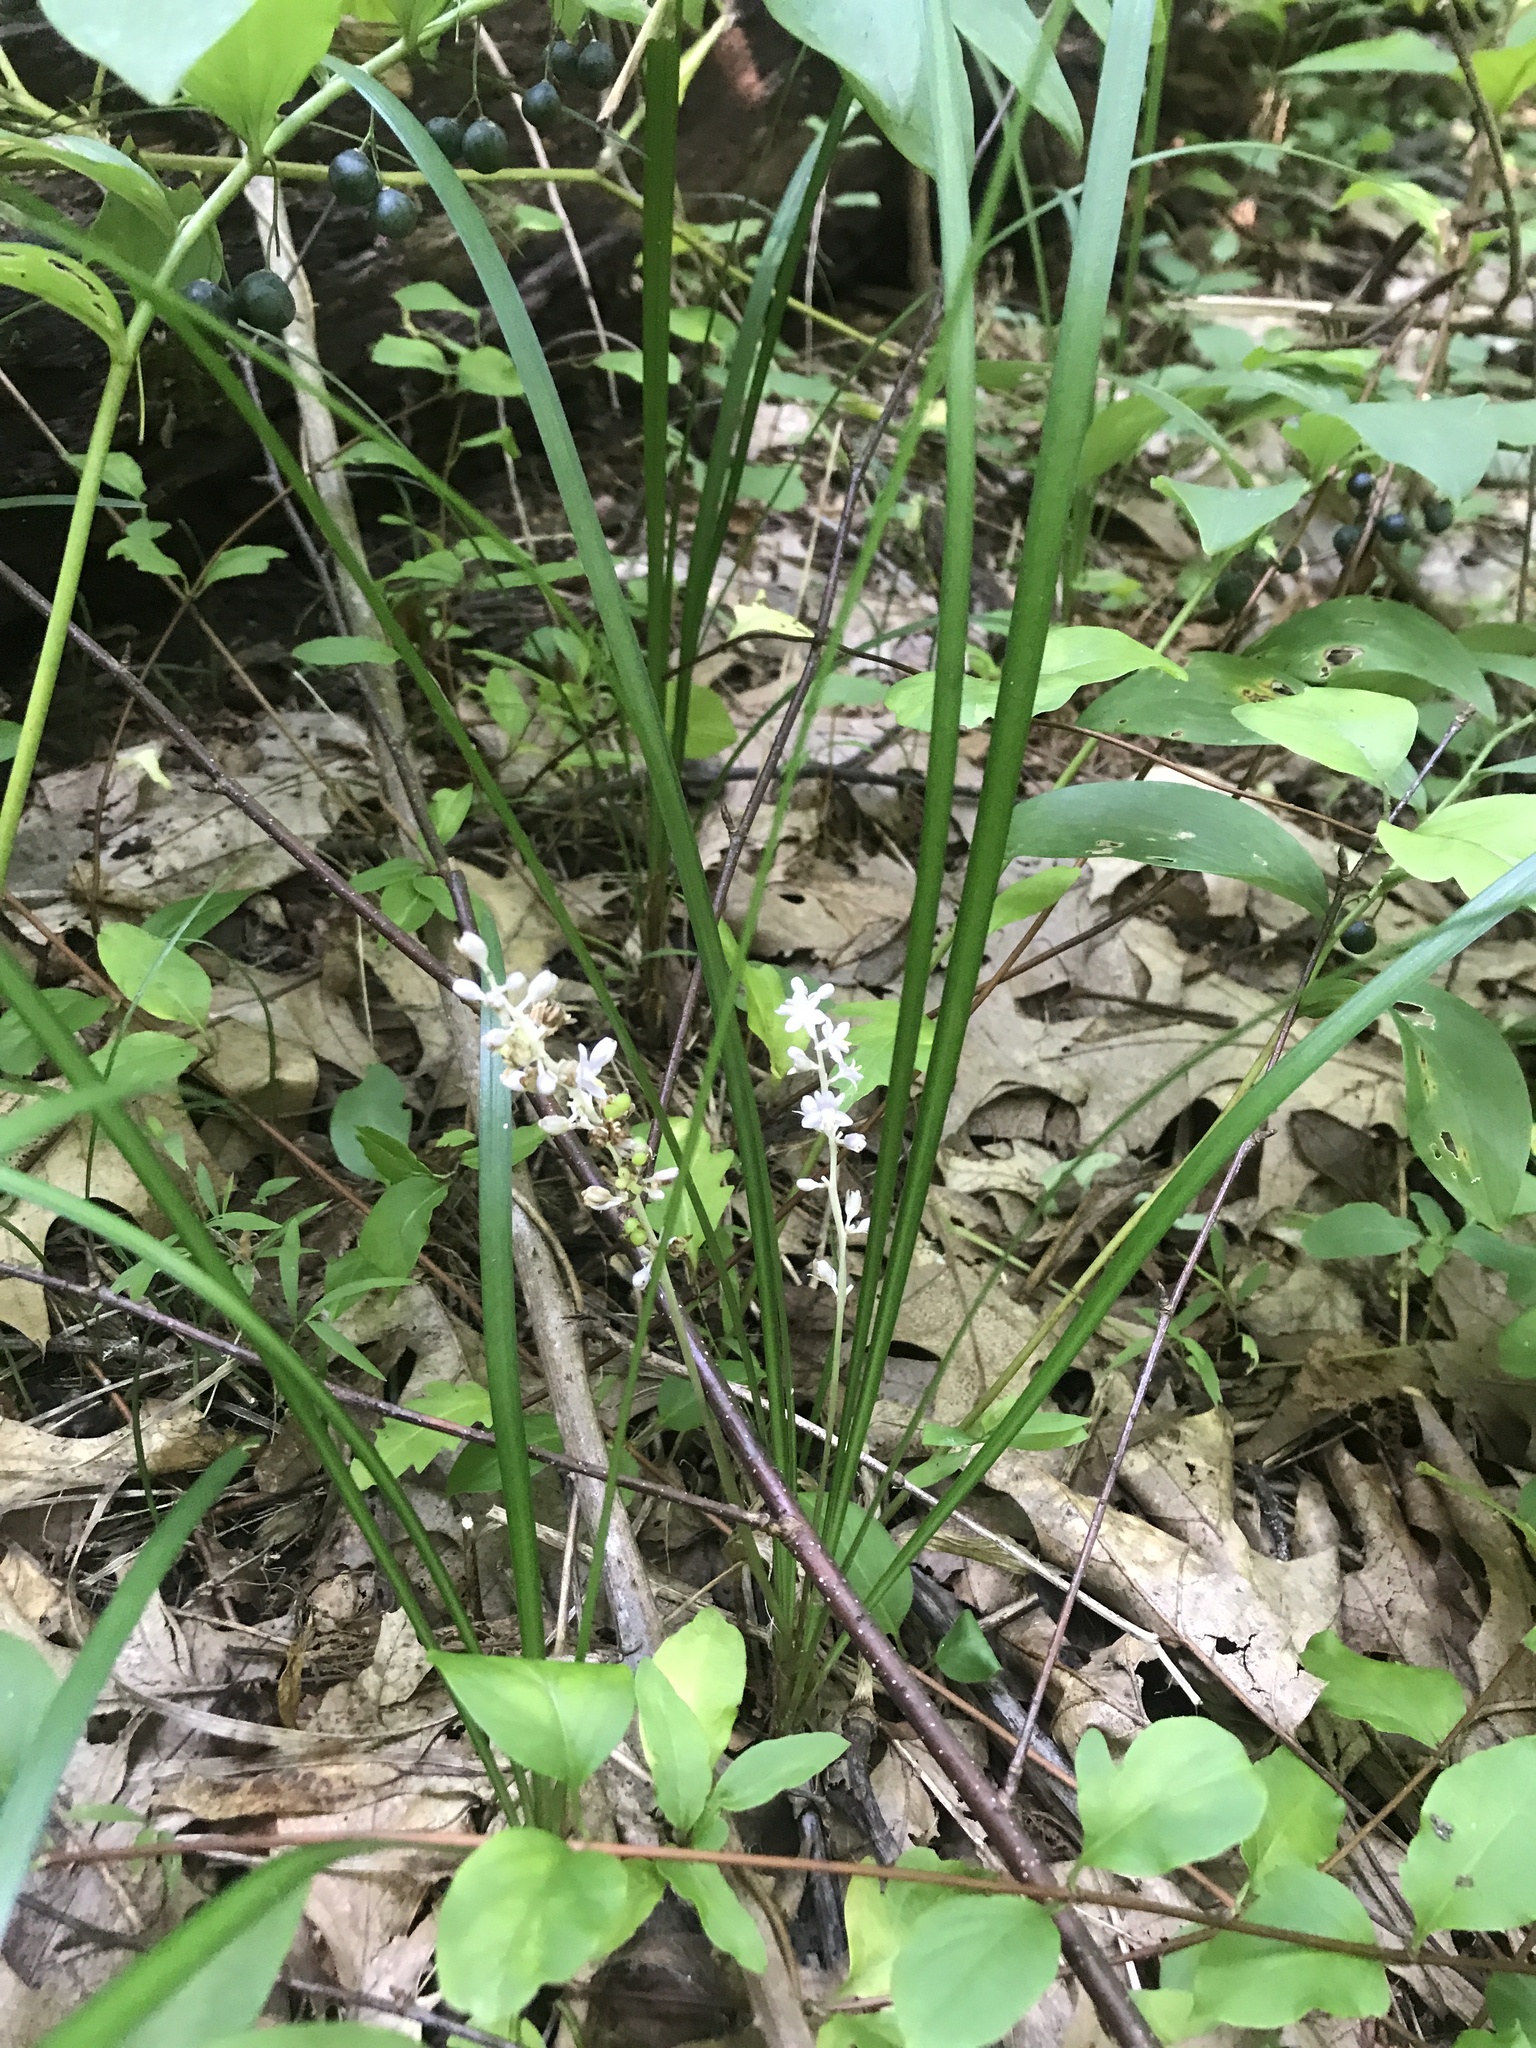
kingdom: Plantae
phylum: Tracheophyta
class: Liliopsida
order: Asparagales
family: Asparagaceae
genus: Liriope
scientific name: Liriope spicata
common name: Creeping liriope
